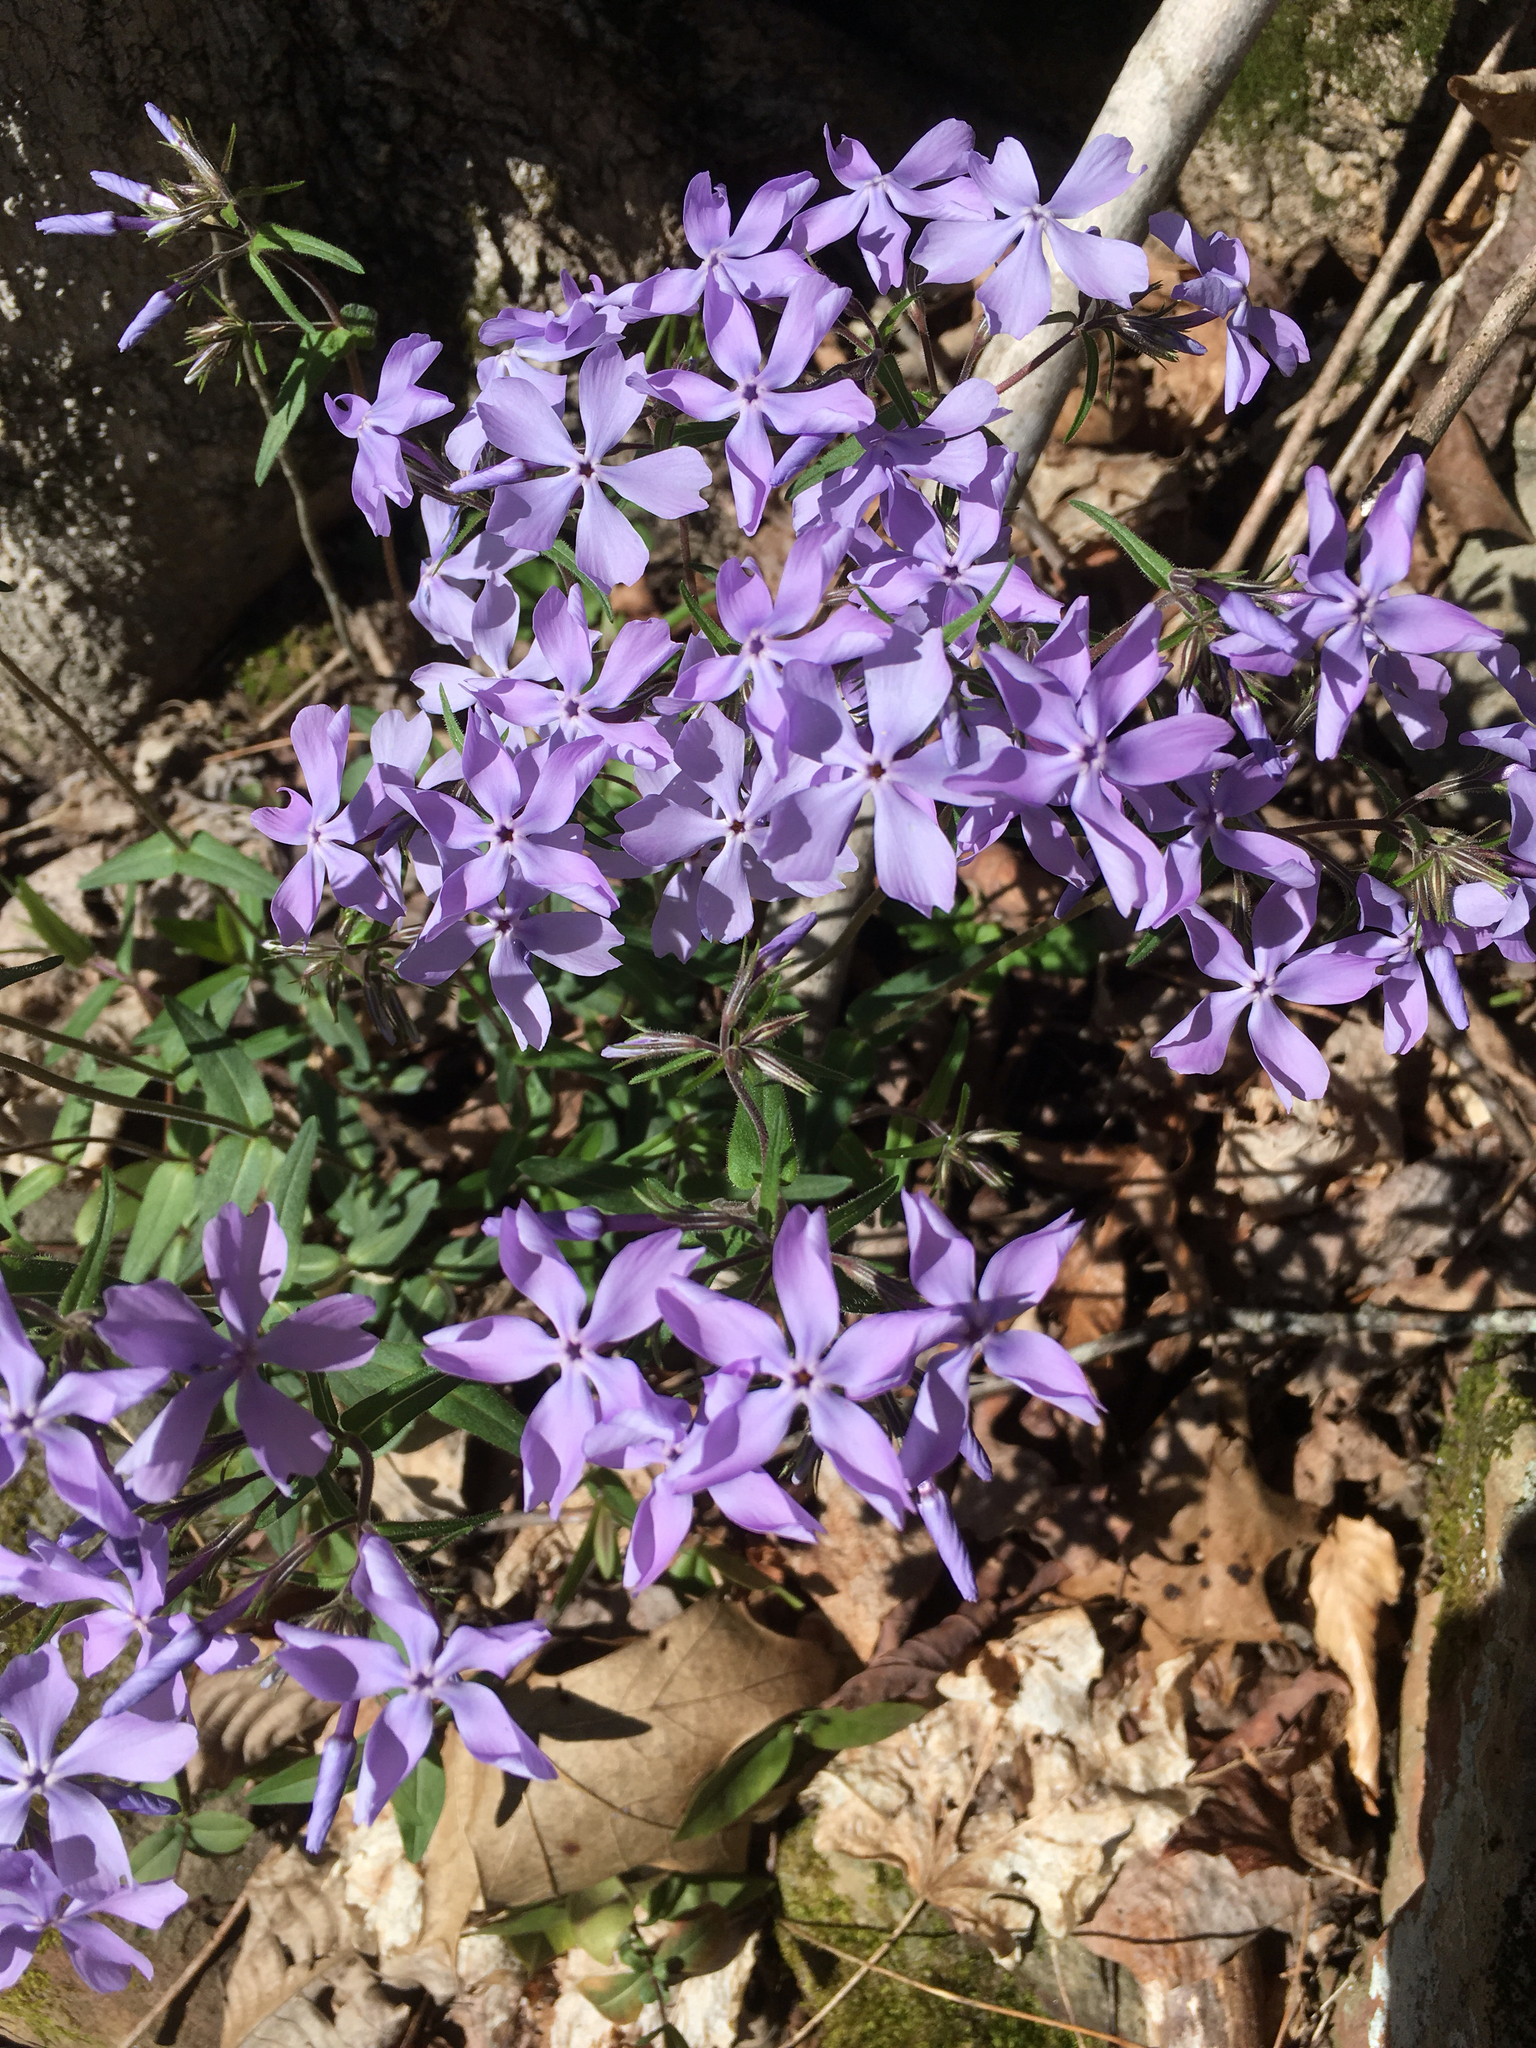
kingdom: Plantae
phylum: Tracheophyta
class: Magnoliopsida
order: Ericales
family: Polemoniaceae
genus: Phlox
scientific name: Phlox divaricata
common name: Blue phlox
